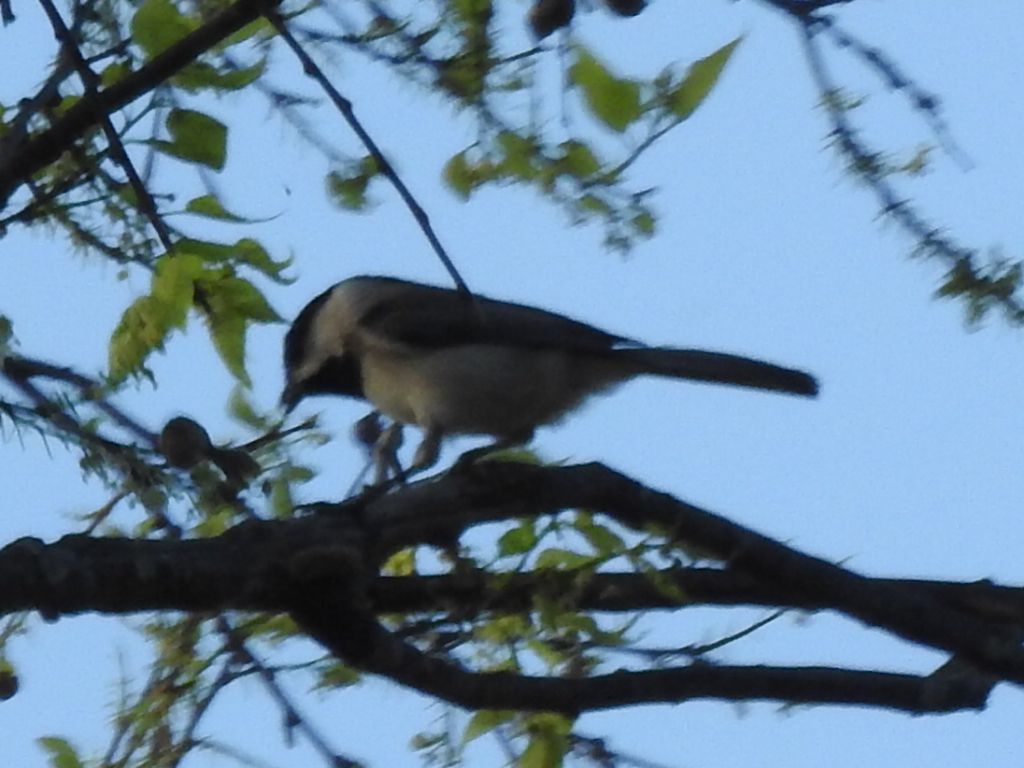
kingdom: Animalia
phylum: Chordata
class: Aves
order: Passeriformes
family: Paridae
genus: Poecile
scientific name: Poecile carolinensis
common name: Carolina chickadee
